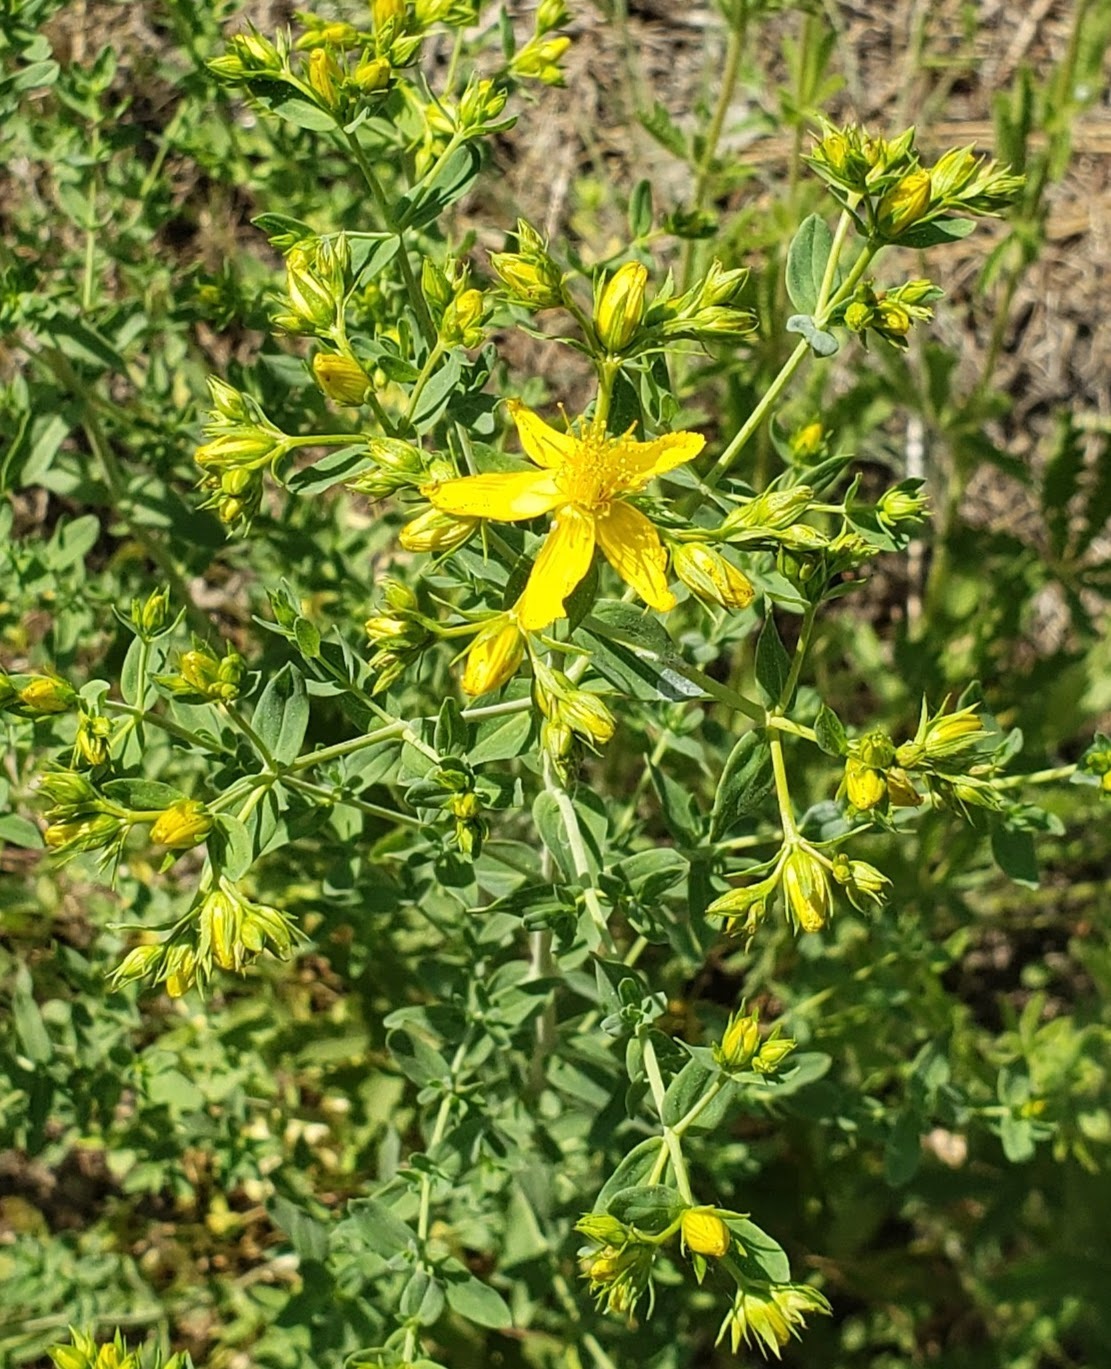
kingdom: Plantae
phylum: Tracheophyta
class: Magnoliopsida
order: Malpighiales
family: Hypericaceae
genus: Hypericum
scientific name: Hypericum perforatum
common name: Common st. johnswort
